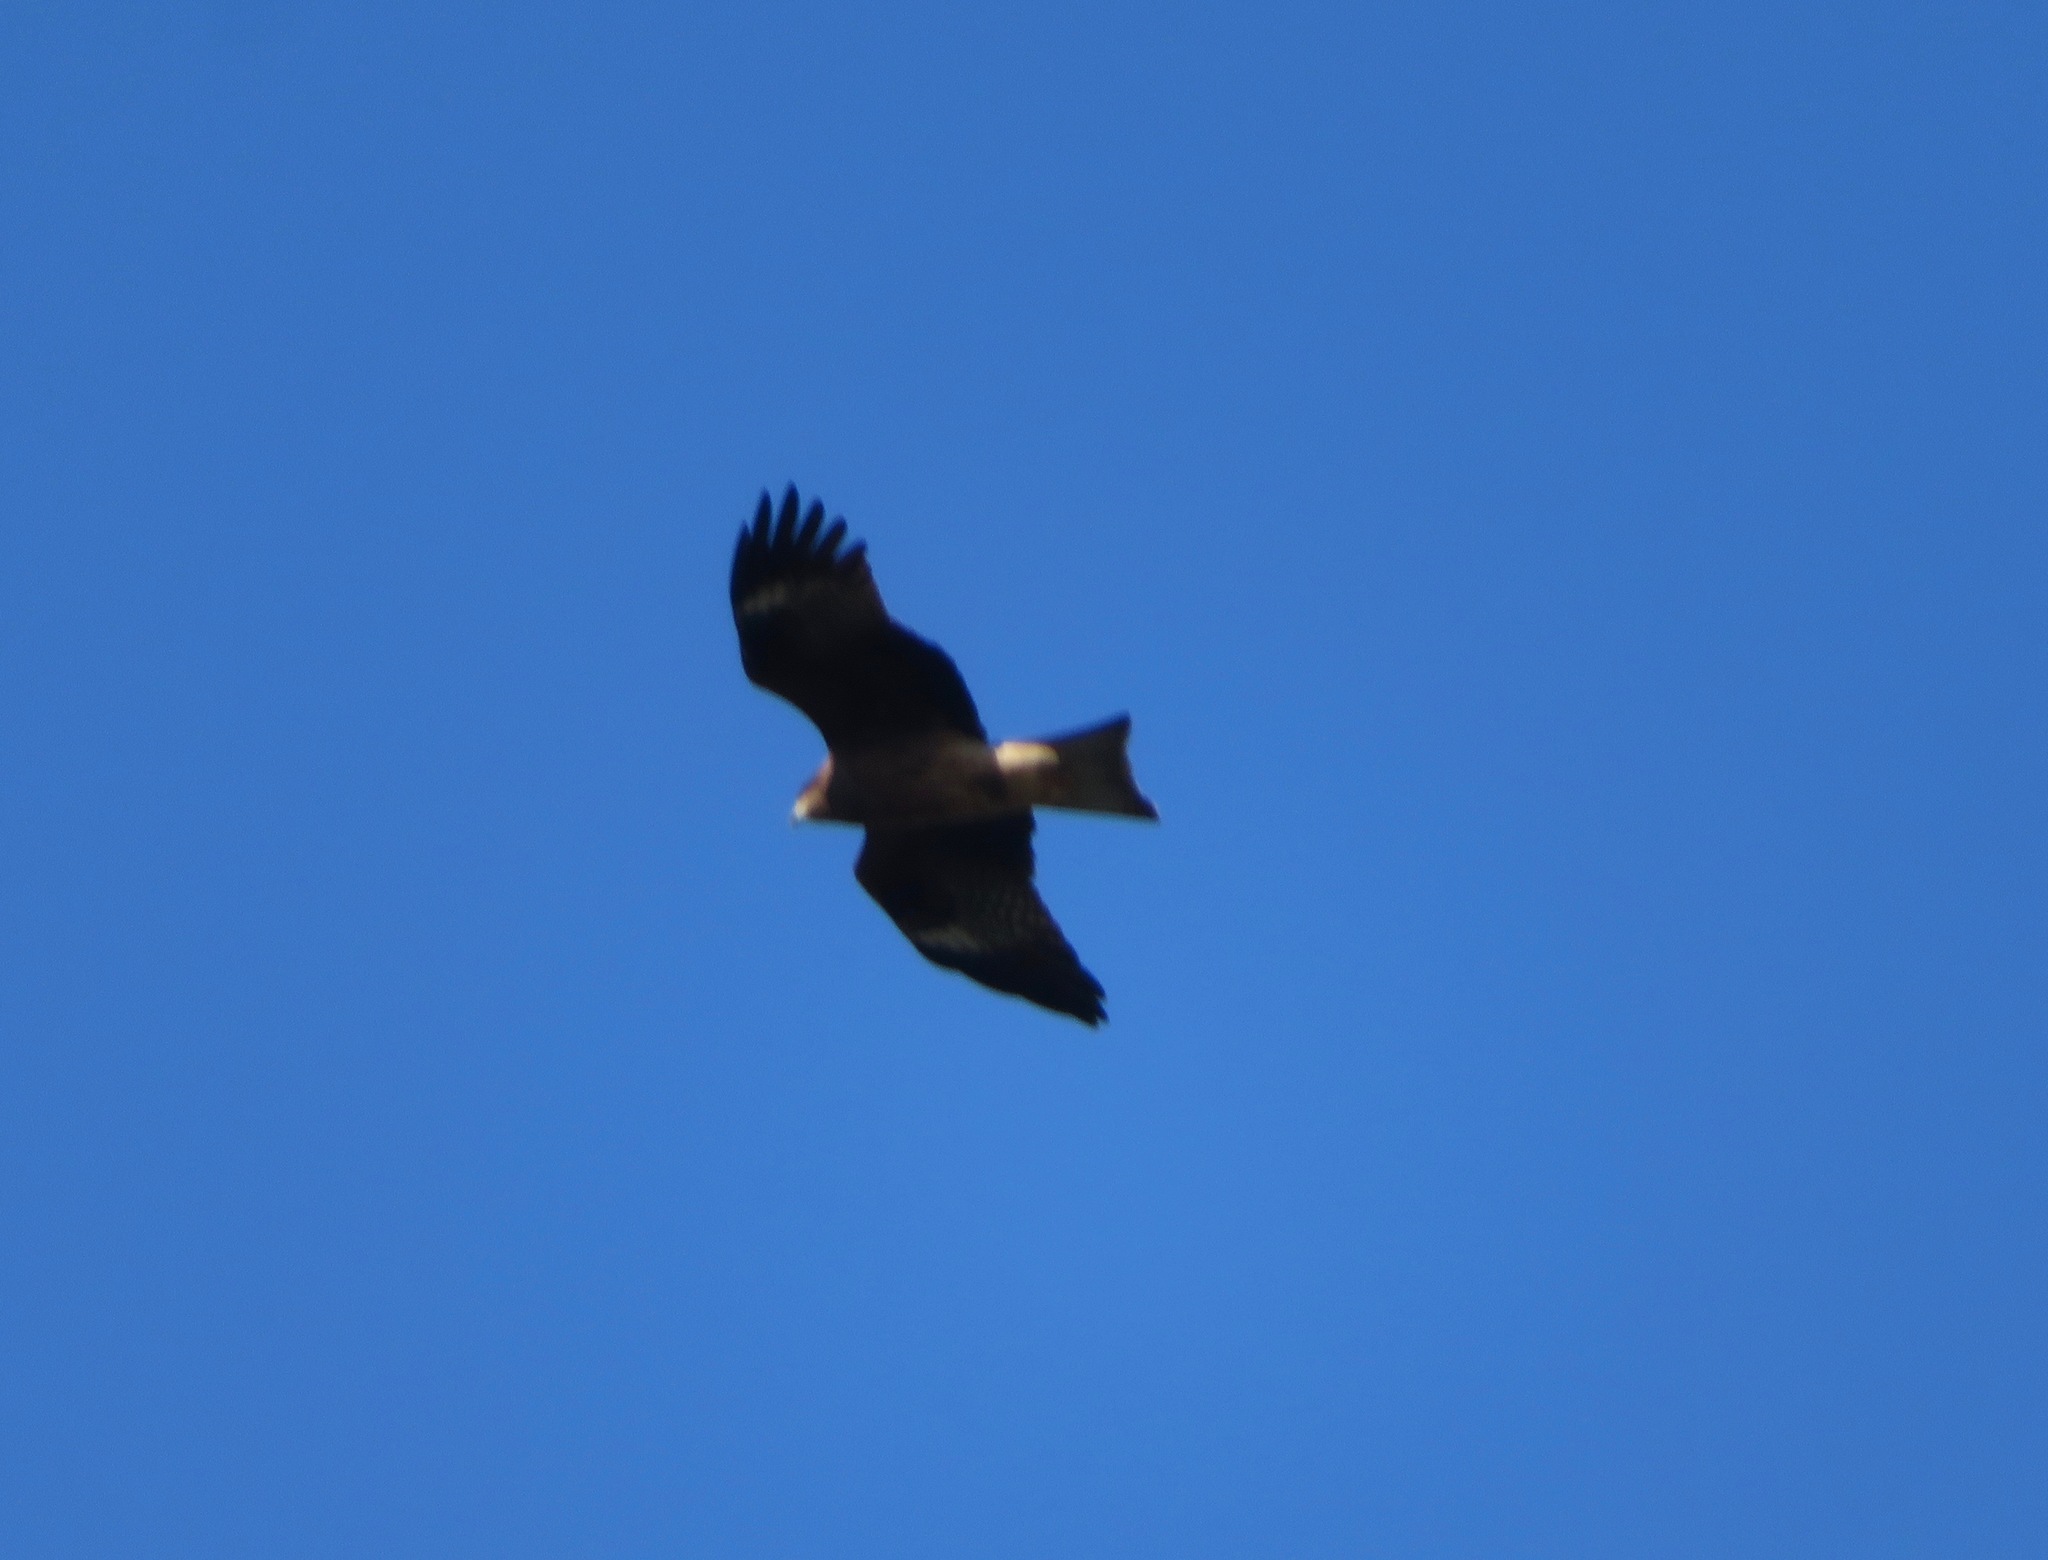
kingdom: Animalia
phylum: Chordata
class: Aves
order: Accipitriformes
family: Accipitridae
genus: Milvus
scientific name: Milvus migrans
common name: Black kite
